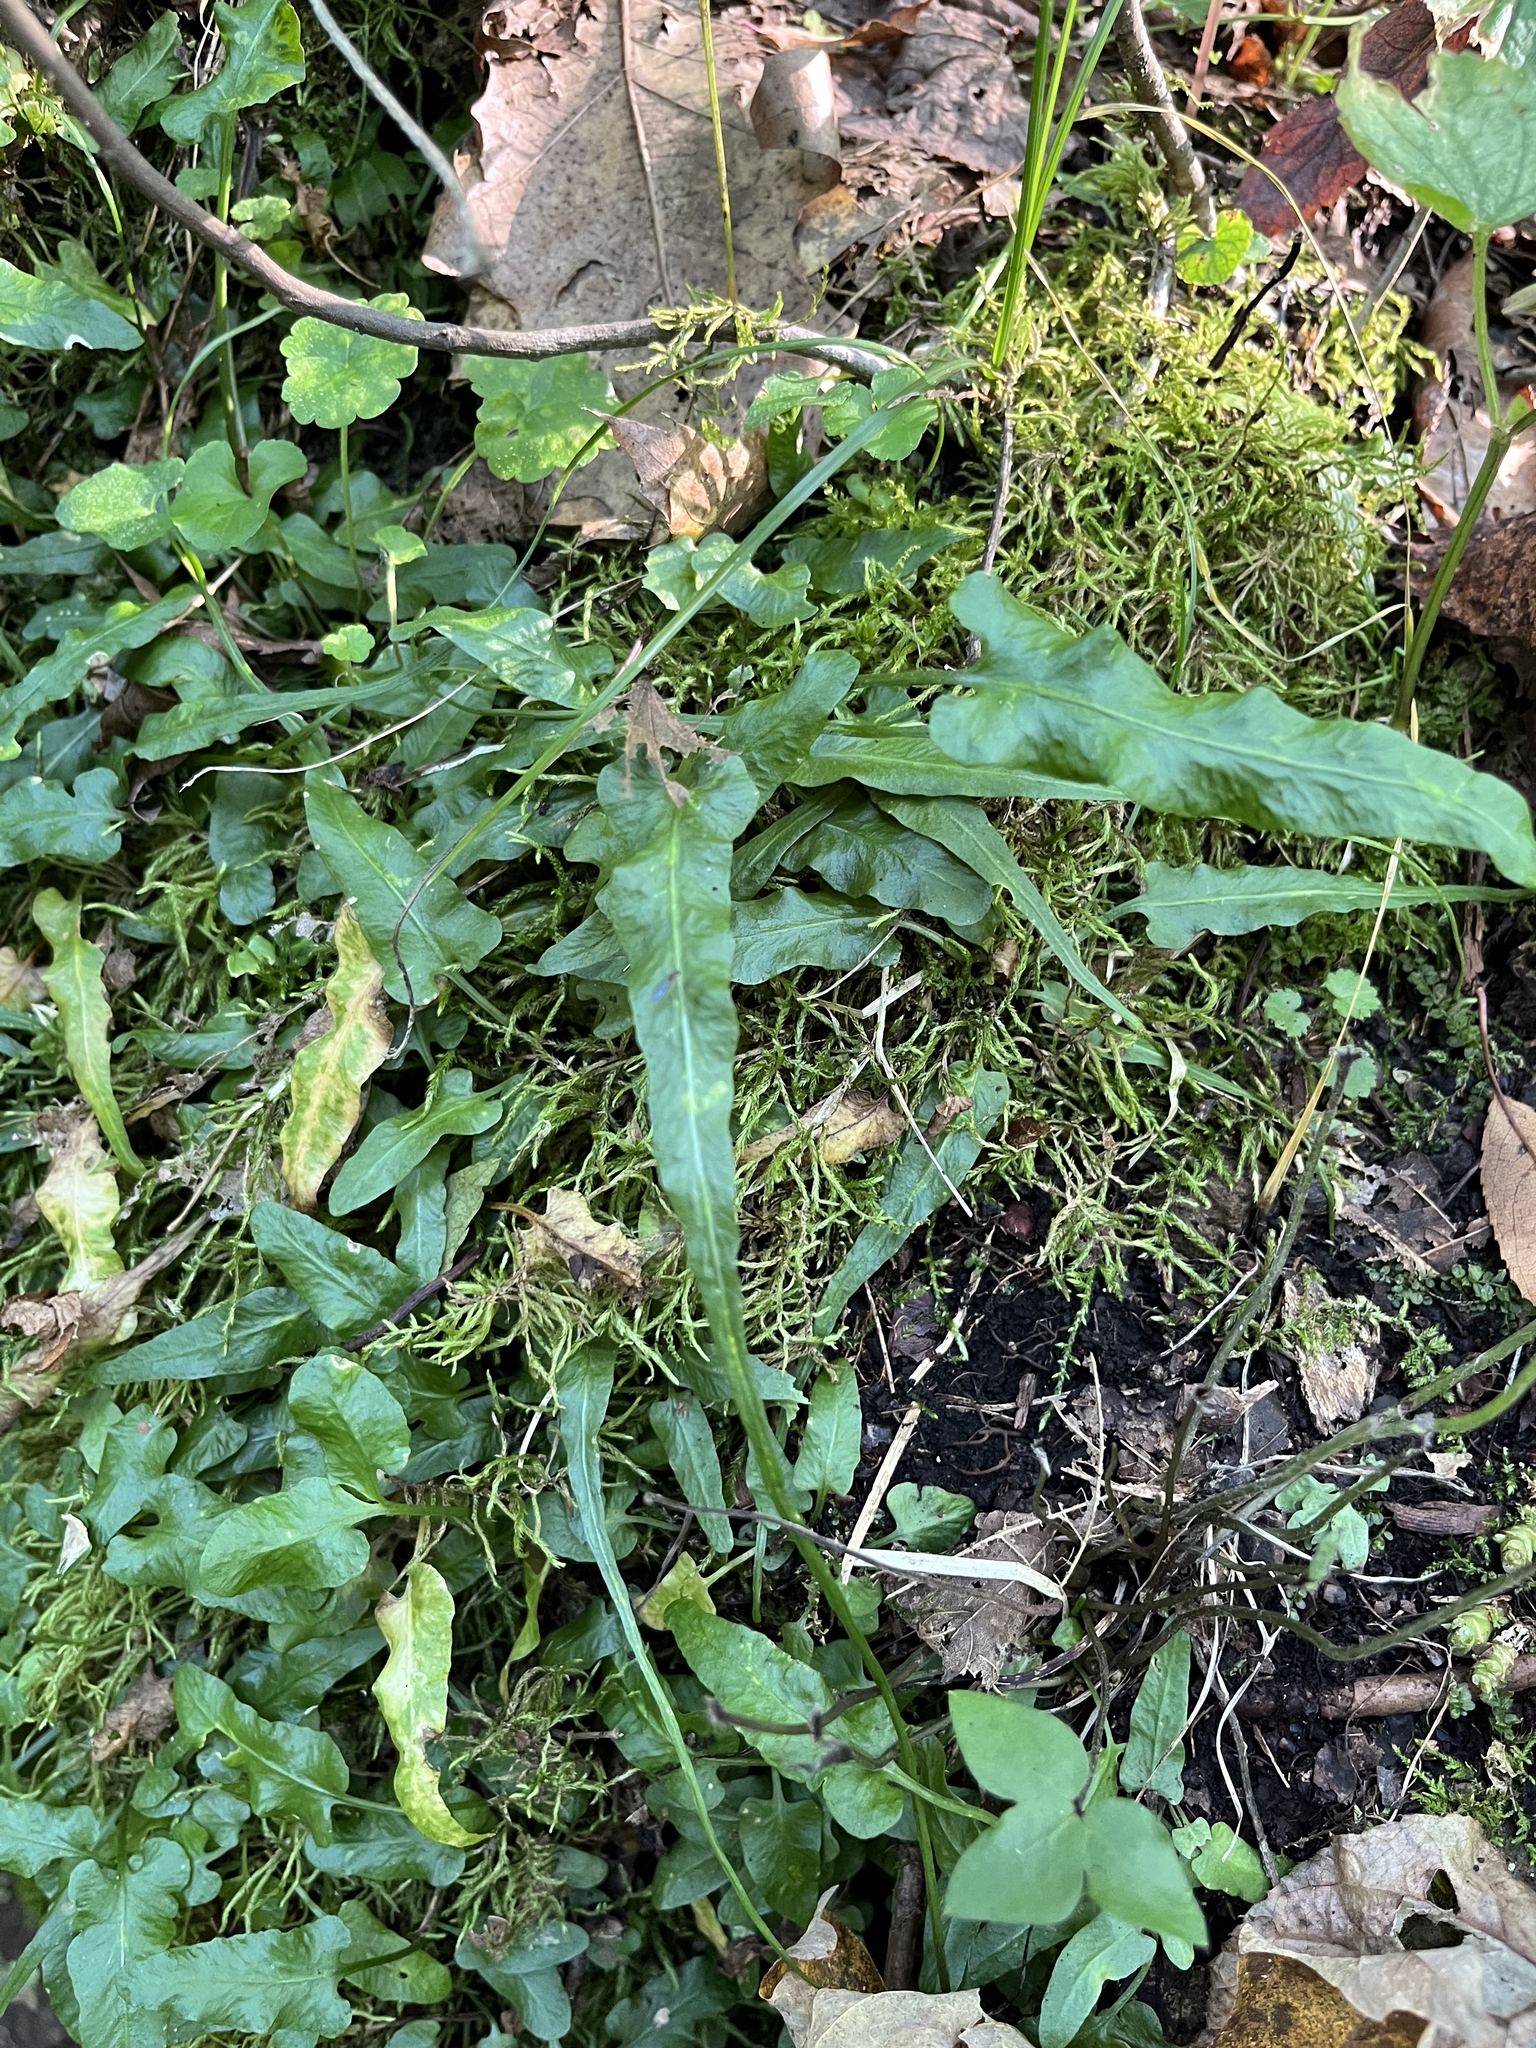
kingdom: Plantae
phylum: Tracheophyta
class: Polypodiopsida
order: Polypodiales
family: Aspleniaceae
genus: Asplenium
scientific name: Asplenium rhizophyllum
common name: Walking fern
